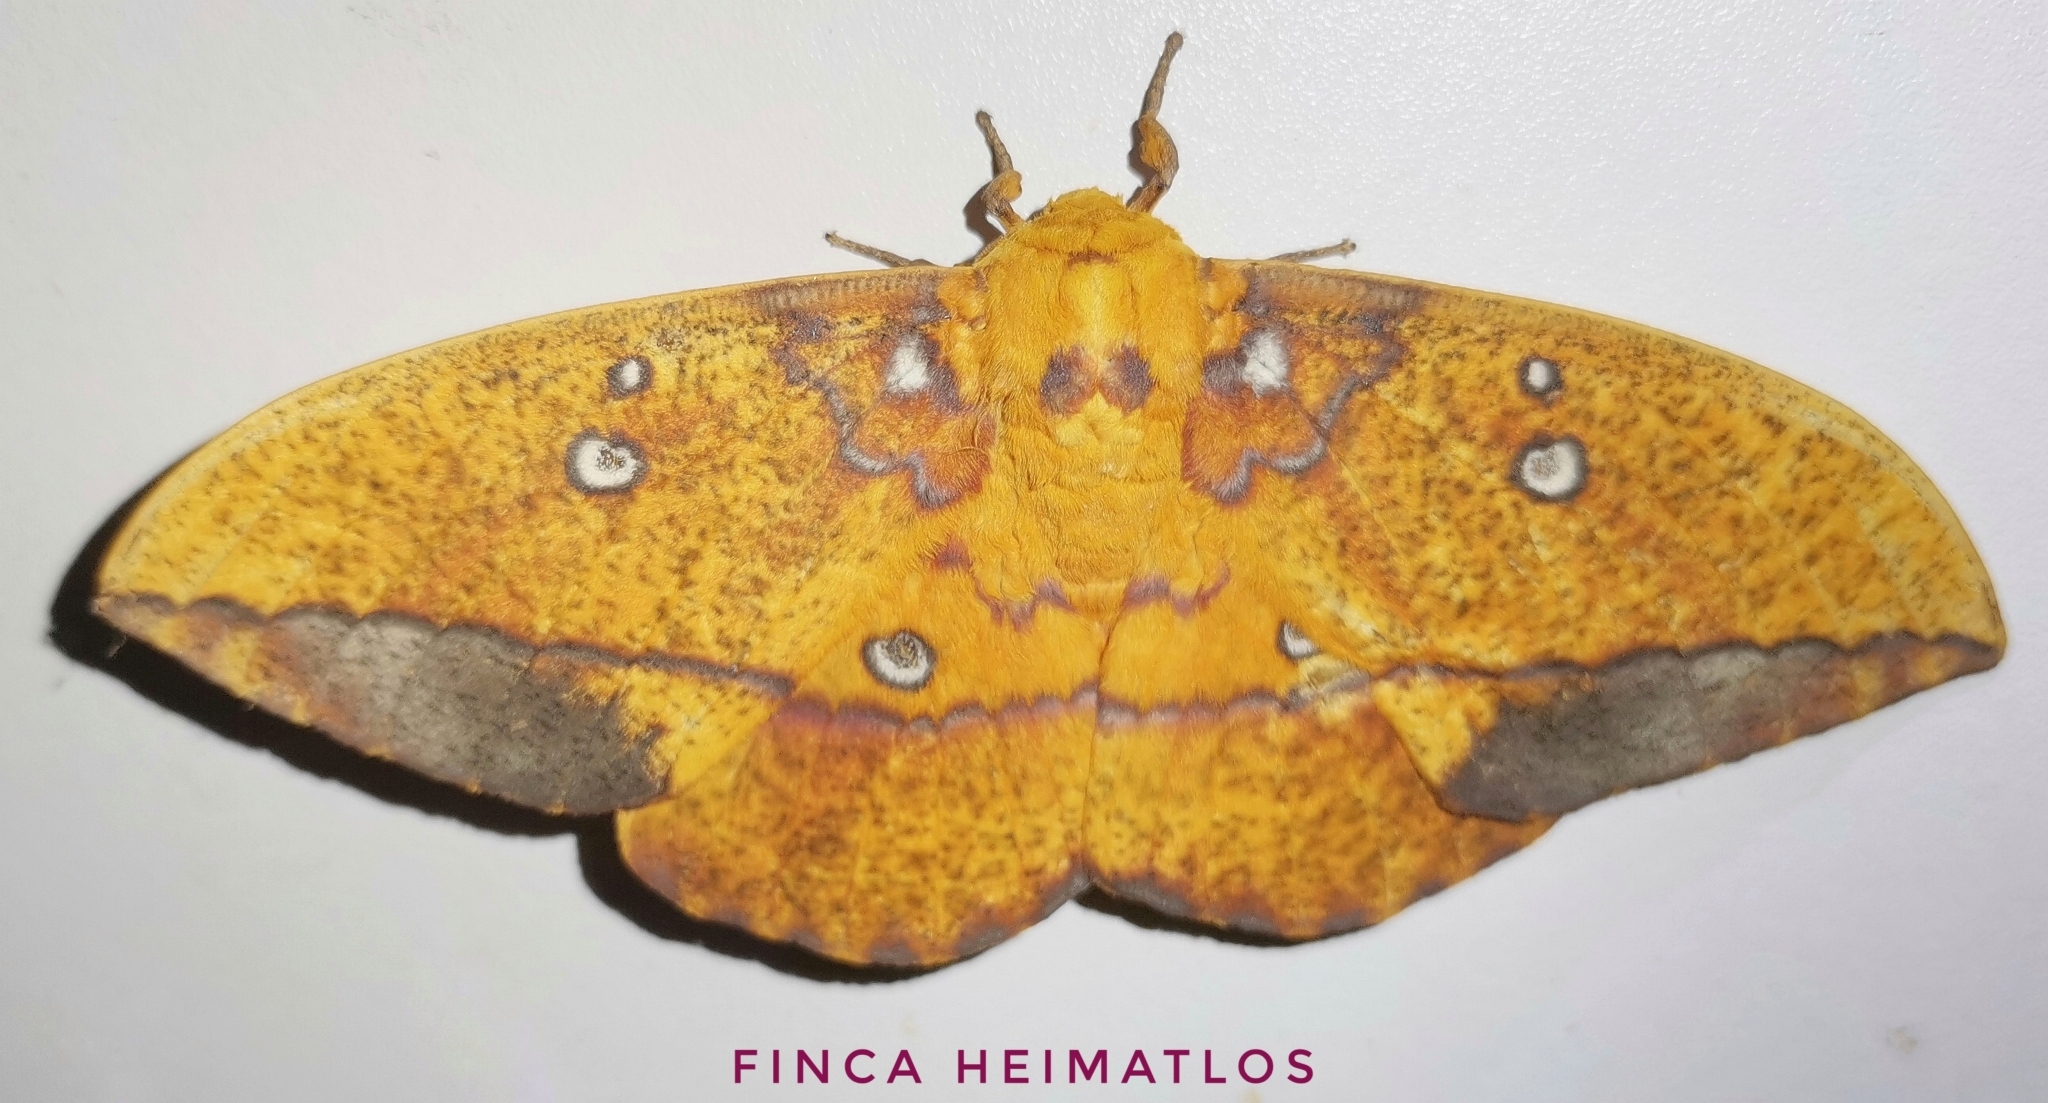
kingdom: Animalia
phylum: Arthropoda
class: Insecta
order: Lepidoptera
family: Saturniidae
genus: Eacles
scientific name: Eacles penelope
